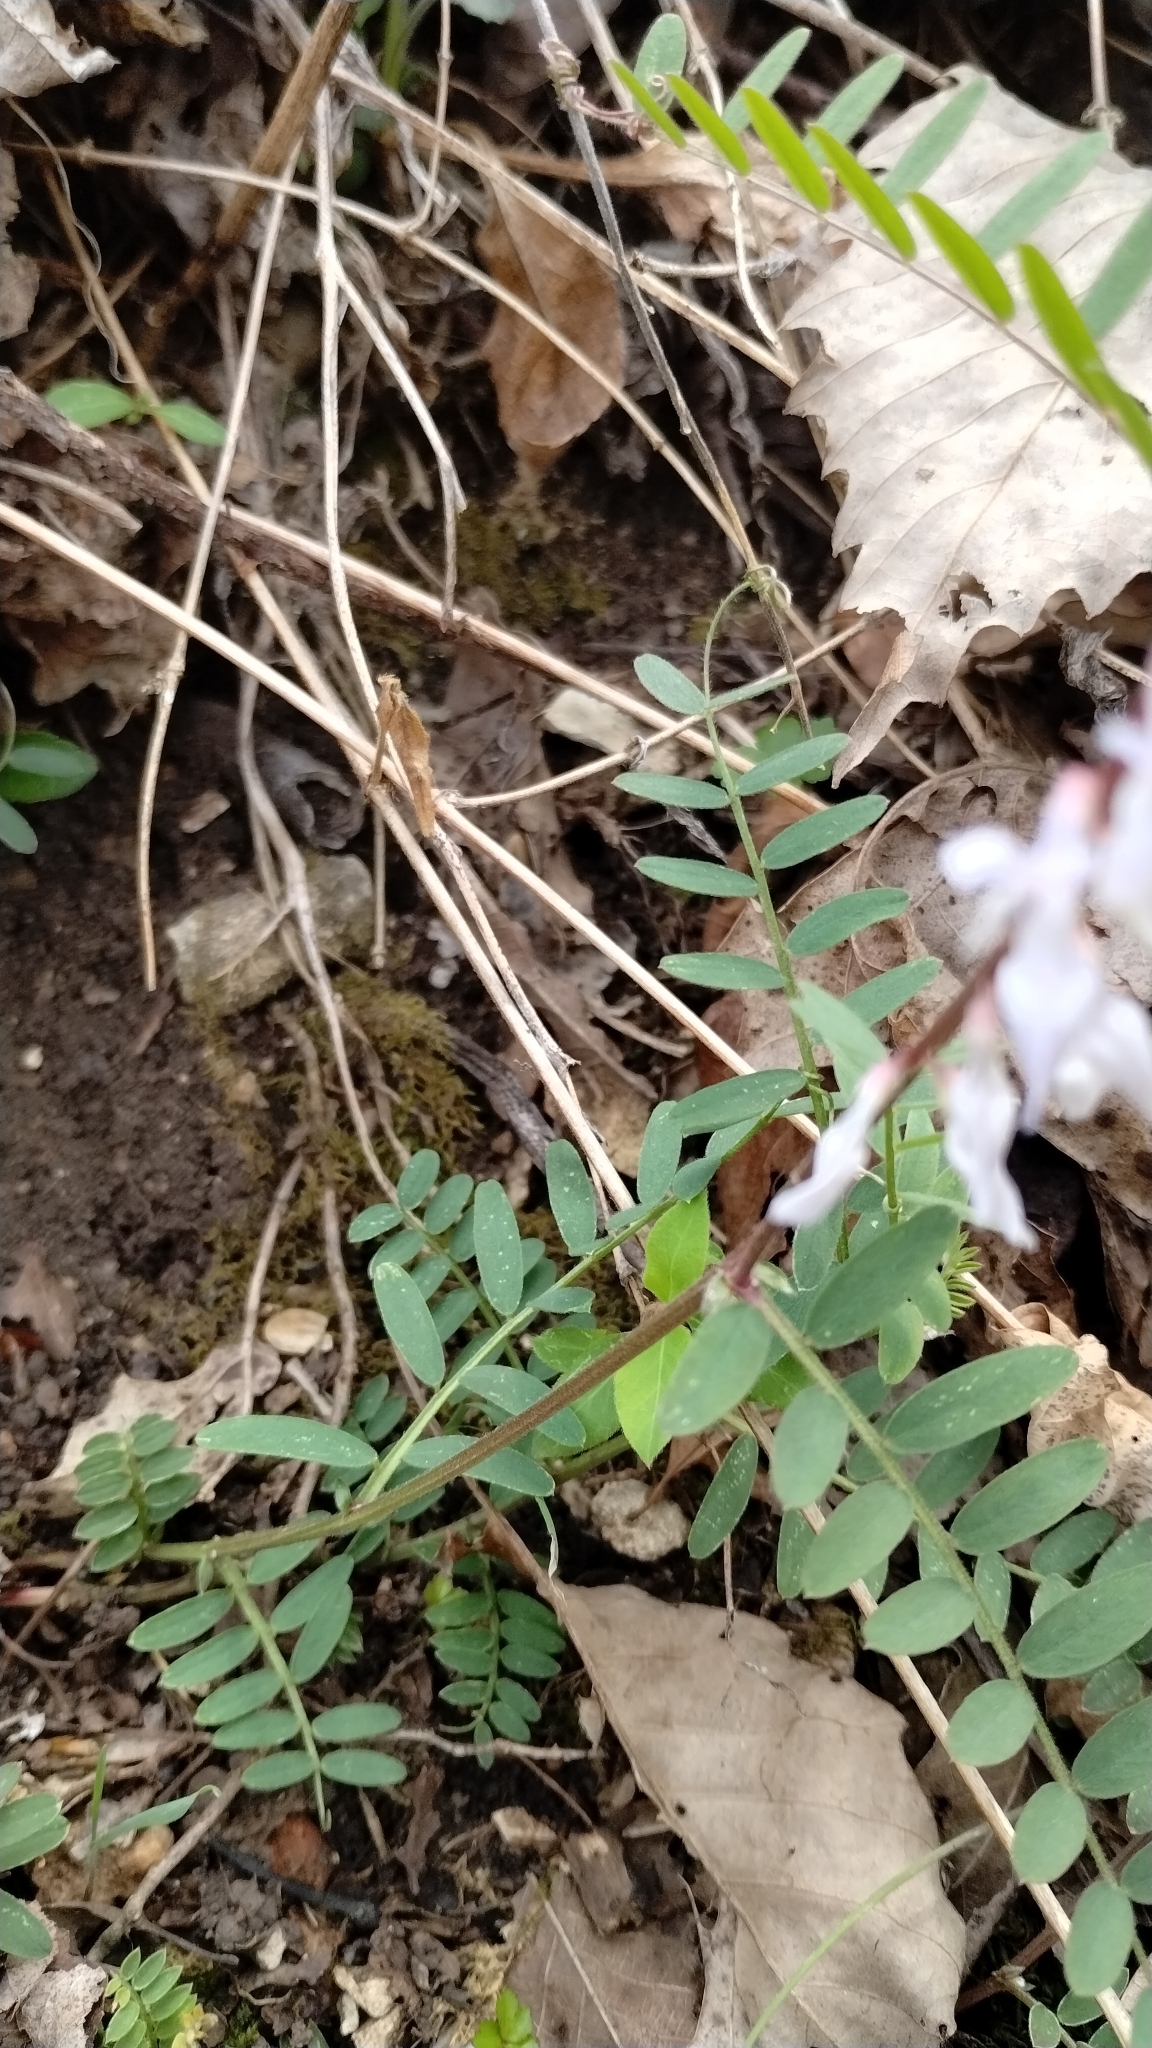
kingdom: Plantae
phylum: Tracheophyta
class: Magnoliopsida
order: Fabales
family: Fabaceae
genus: Vicia
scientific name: Vicia caroliniana
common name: Carolina vetch
